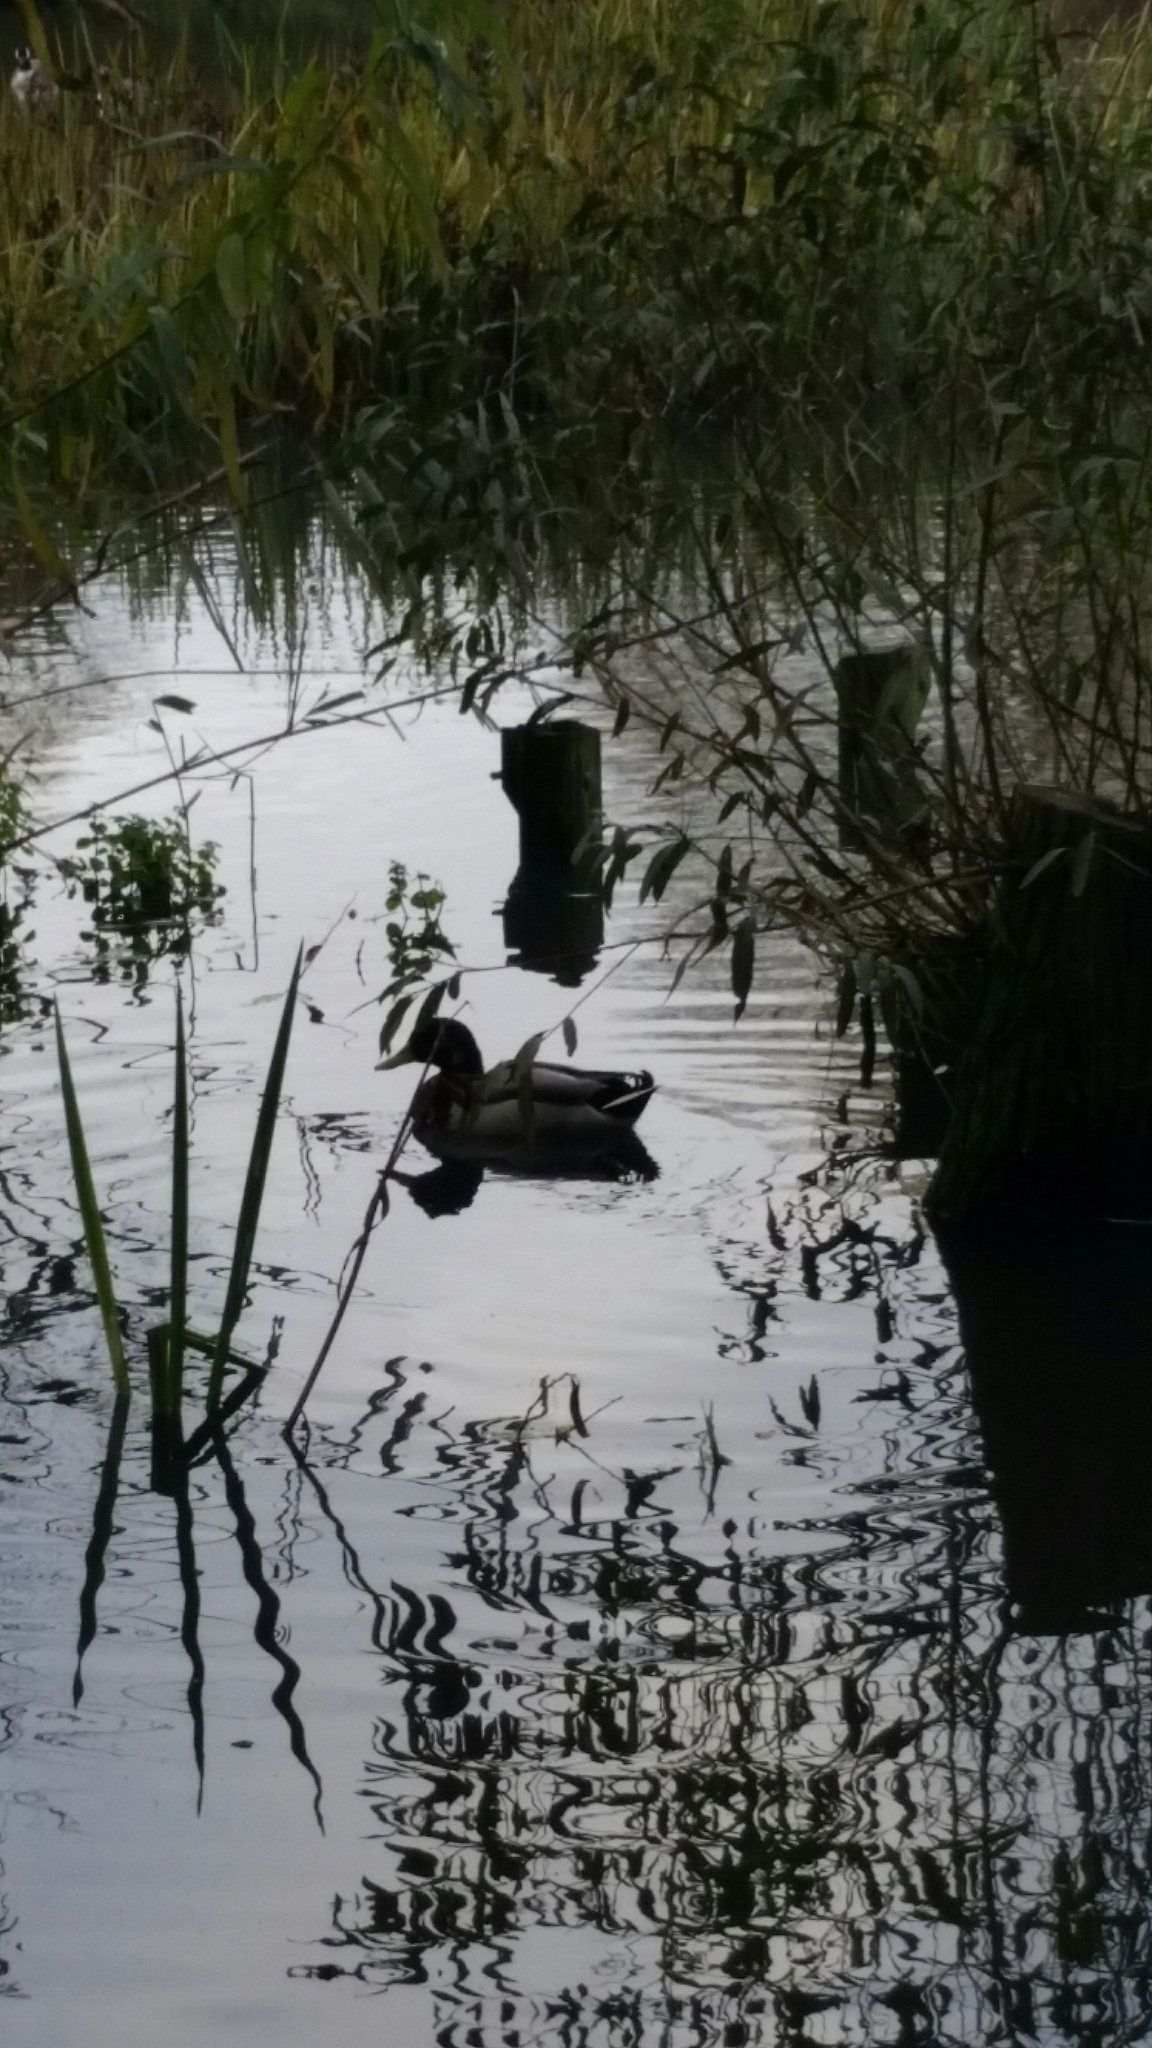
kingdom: Animalia
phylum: Chordata
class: Aves
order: Anseriformes
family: Anatidae
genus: Anas
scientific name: Anas platyrhynchos
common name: Mallard
